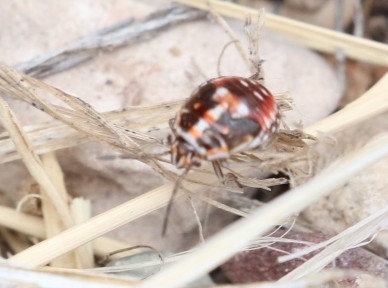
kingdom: Animalia
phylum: Arthropoda
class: Insecta
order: Hemiptera
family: Pentatomidae
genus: Bagrada
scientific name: Bagrada hilaris
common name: Bagrada bug
